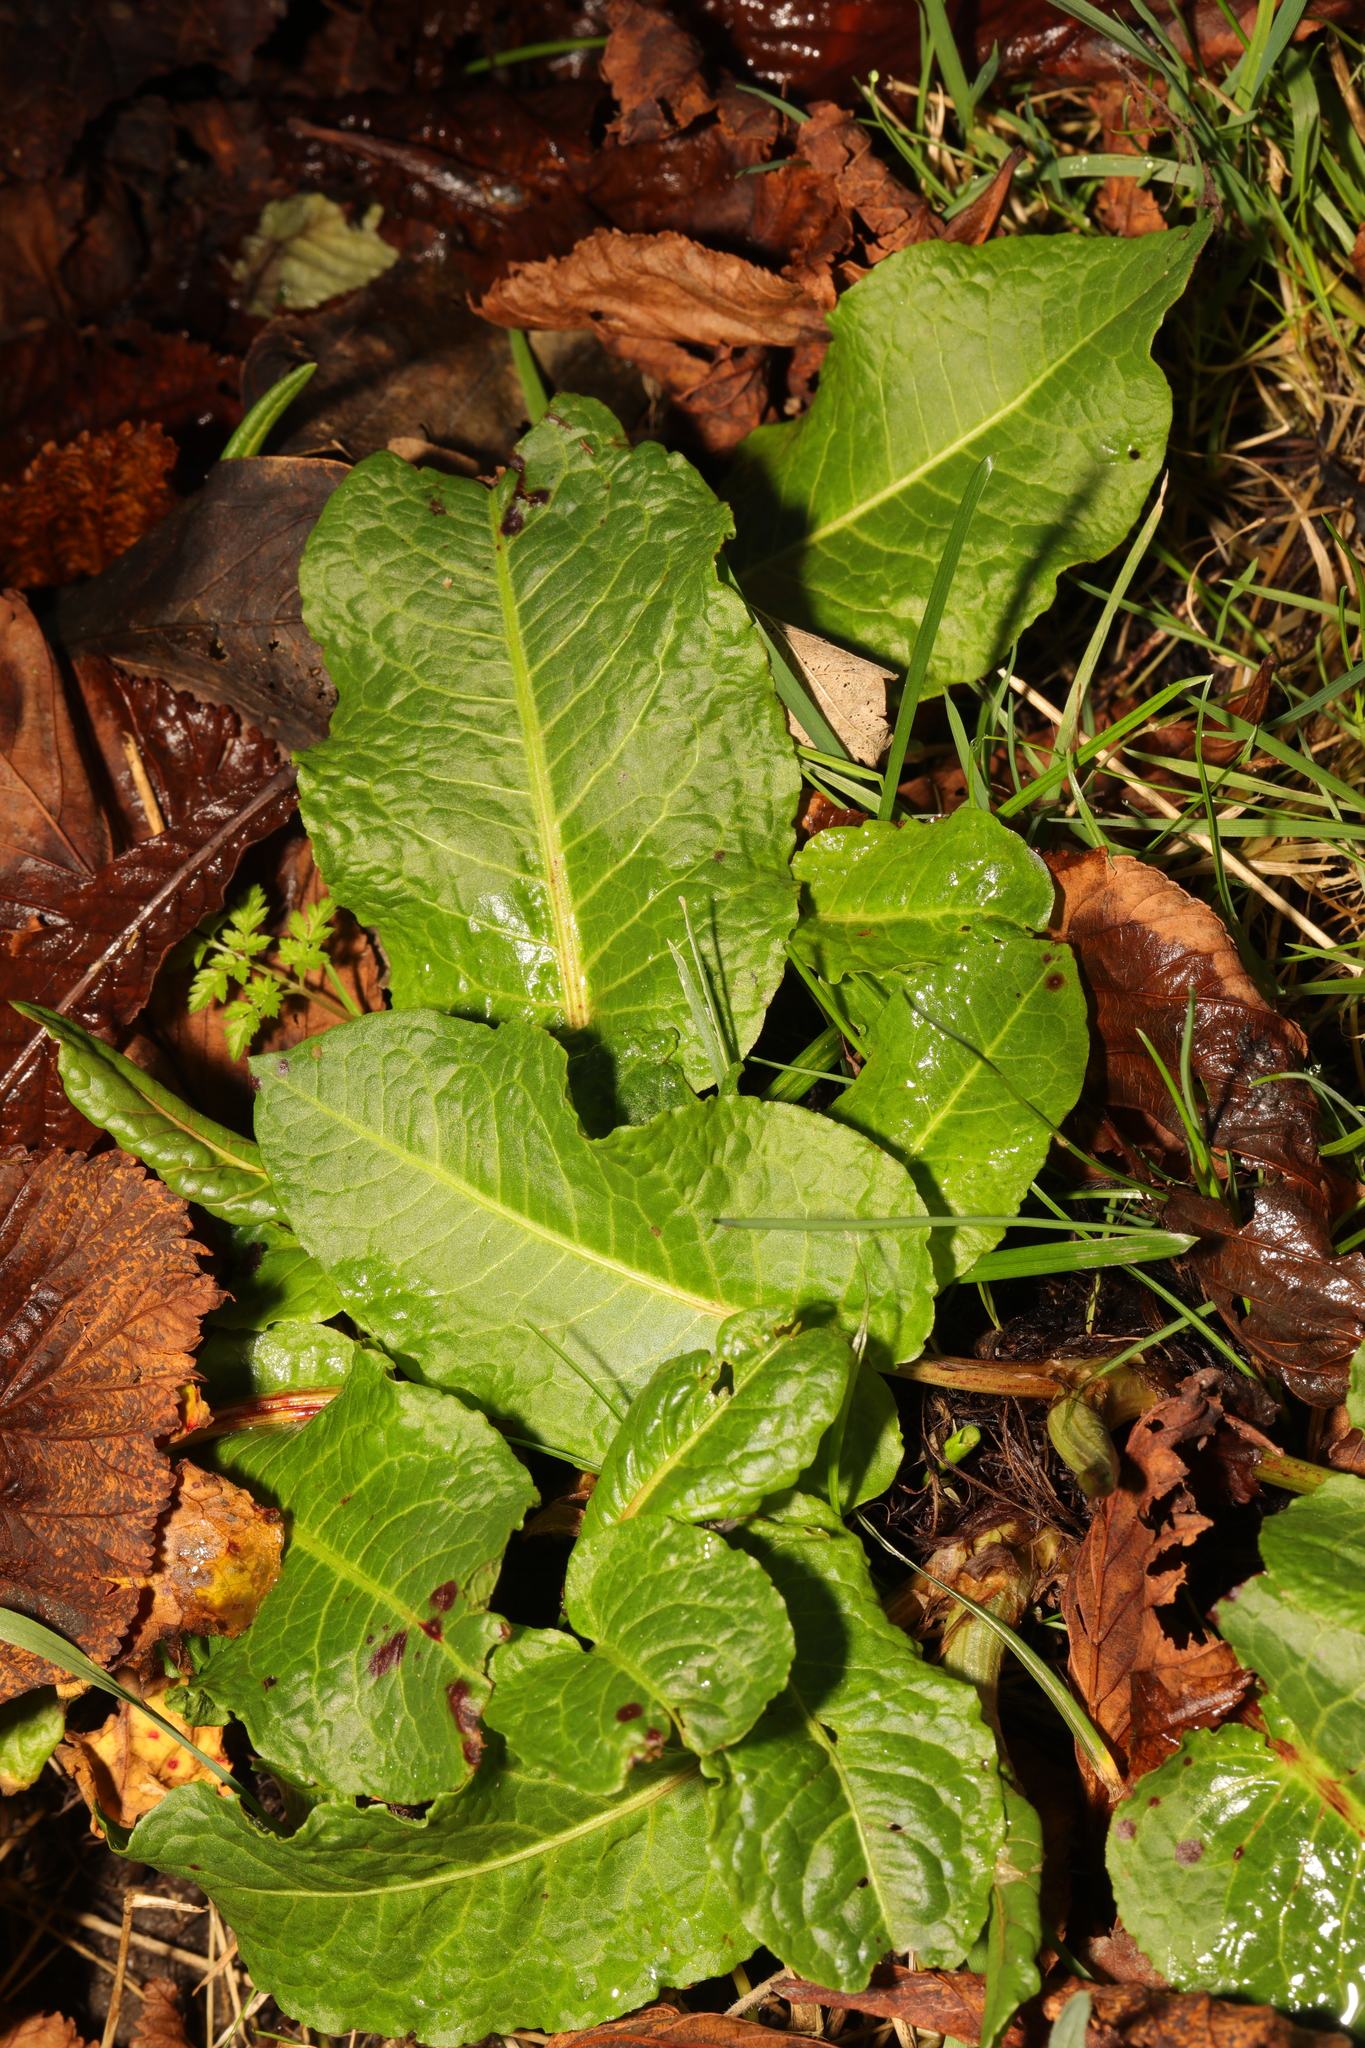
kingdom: Plantae
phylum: Tracheophyta
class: Magnoliopsida
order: Caryophyllales
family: Polygonaceae
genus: Rumex
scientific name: Rumex obtusifolius
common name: Bitter dock
